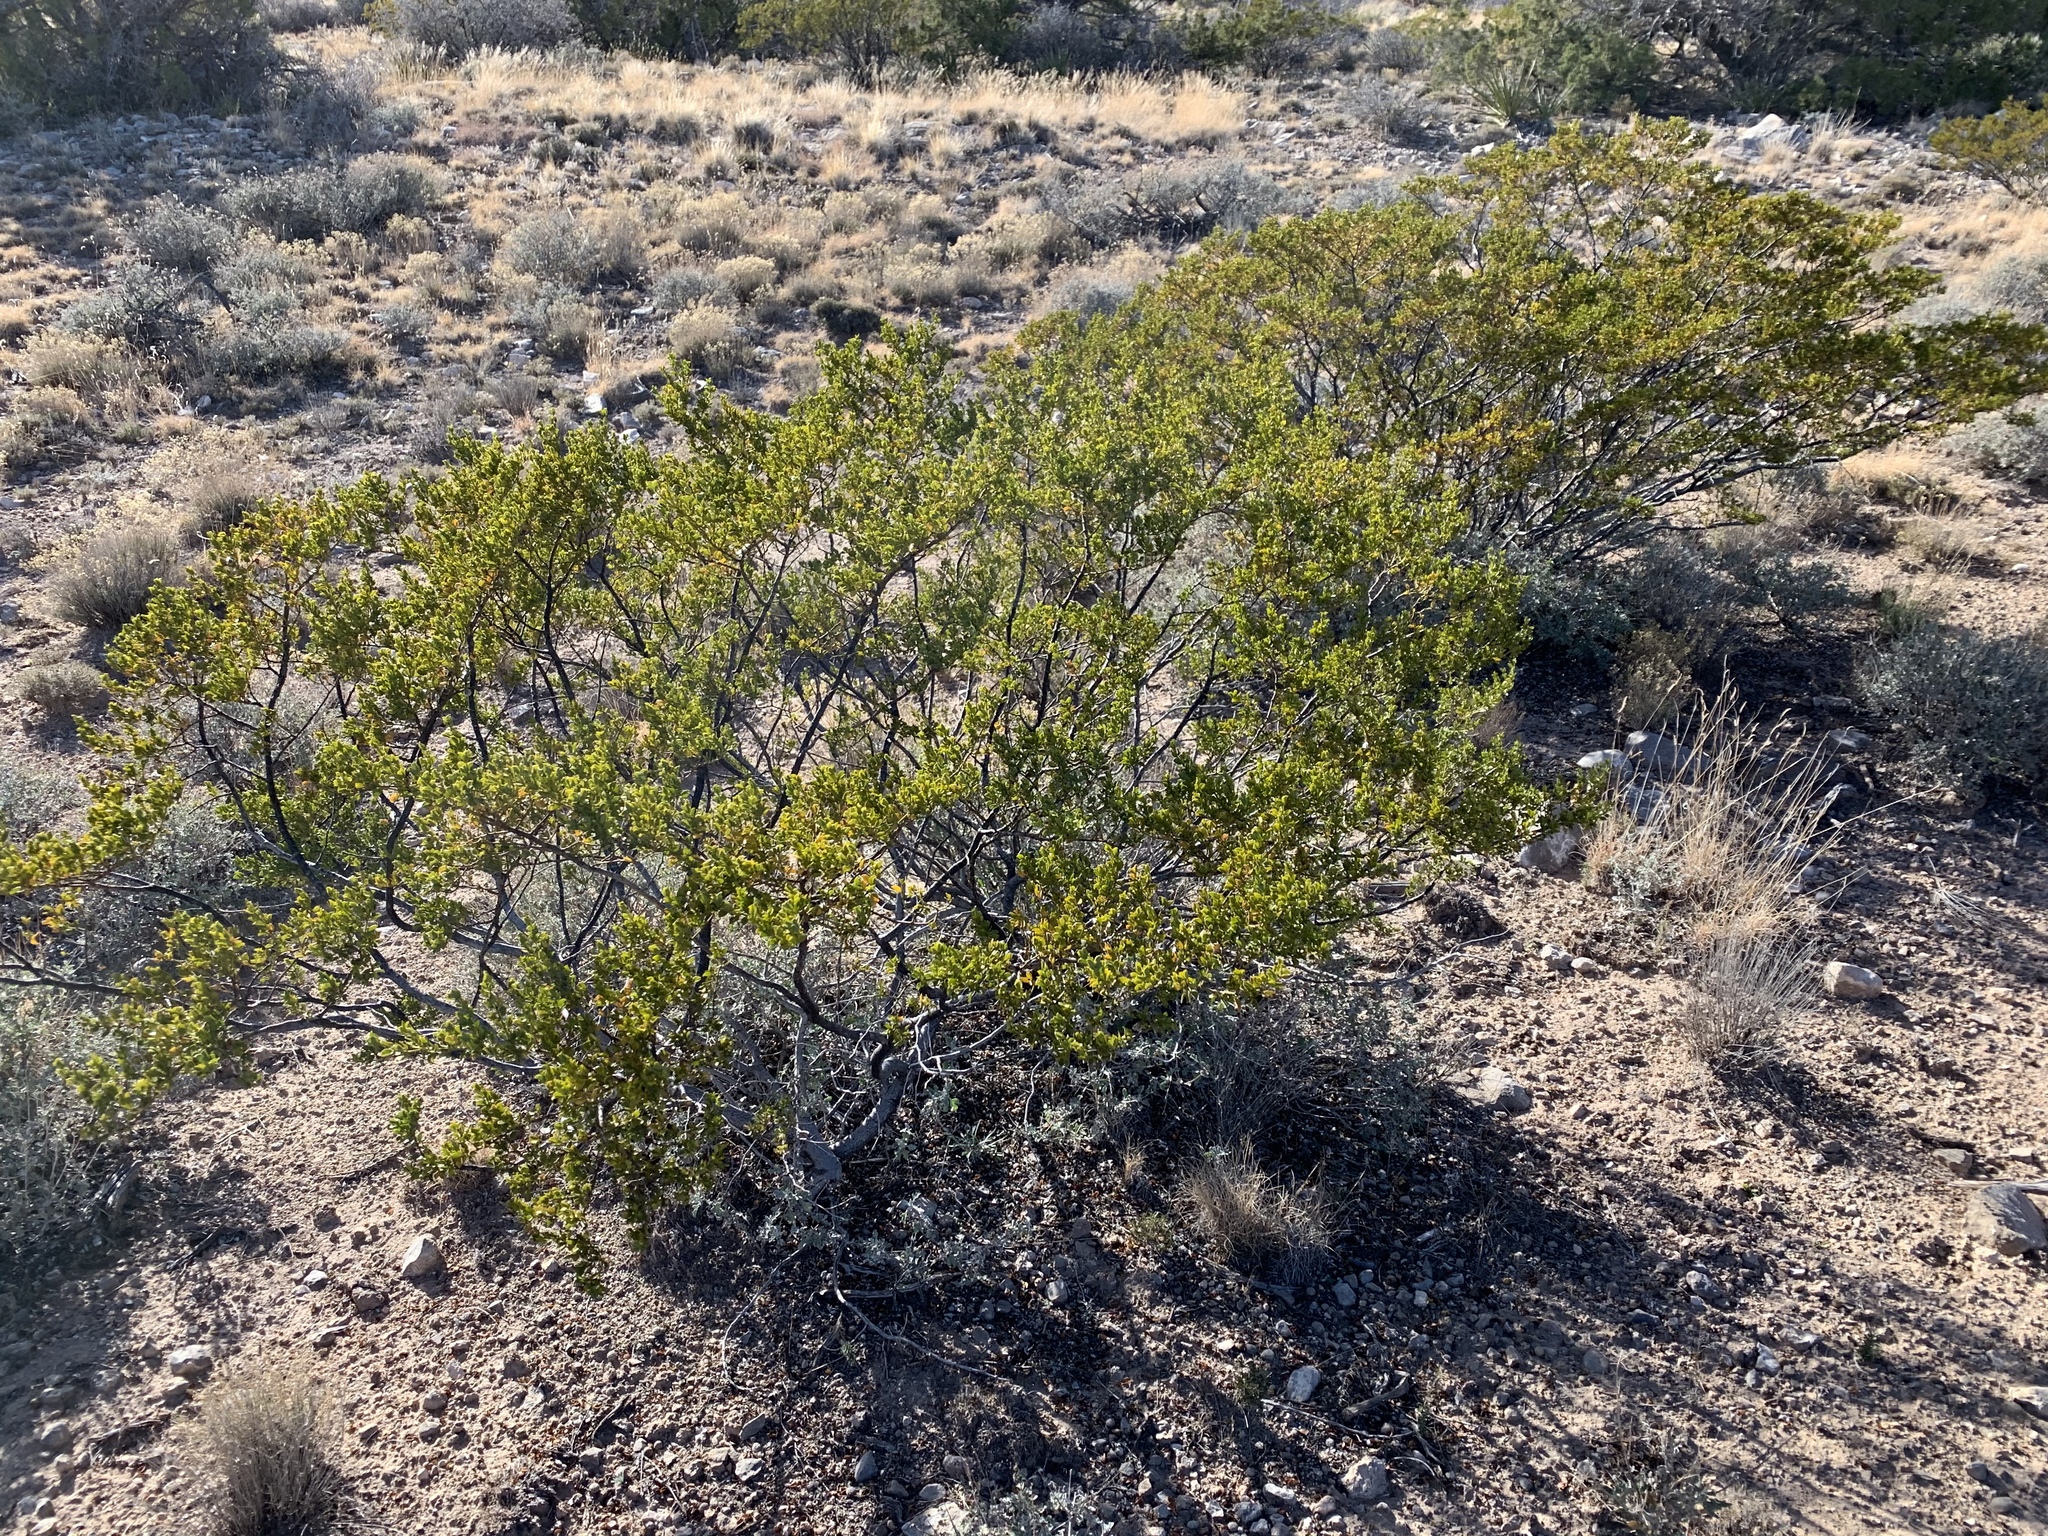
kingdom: Plantae
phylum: Tracheophyta
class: Magnoliopsida
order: Zygophyllales
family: Zygophyllaceae
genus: Larrea
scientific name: Larrea tridentata
